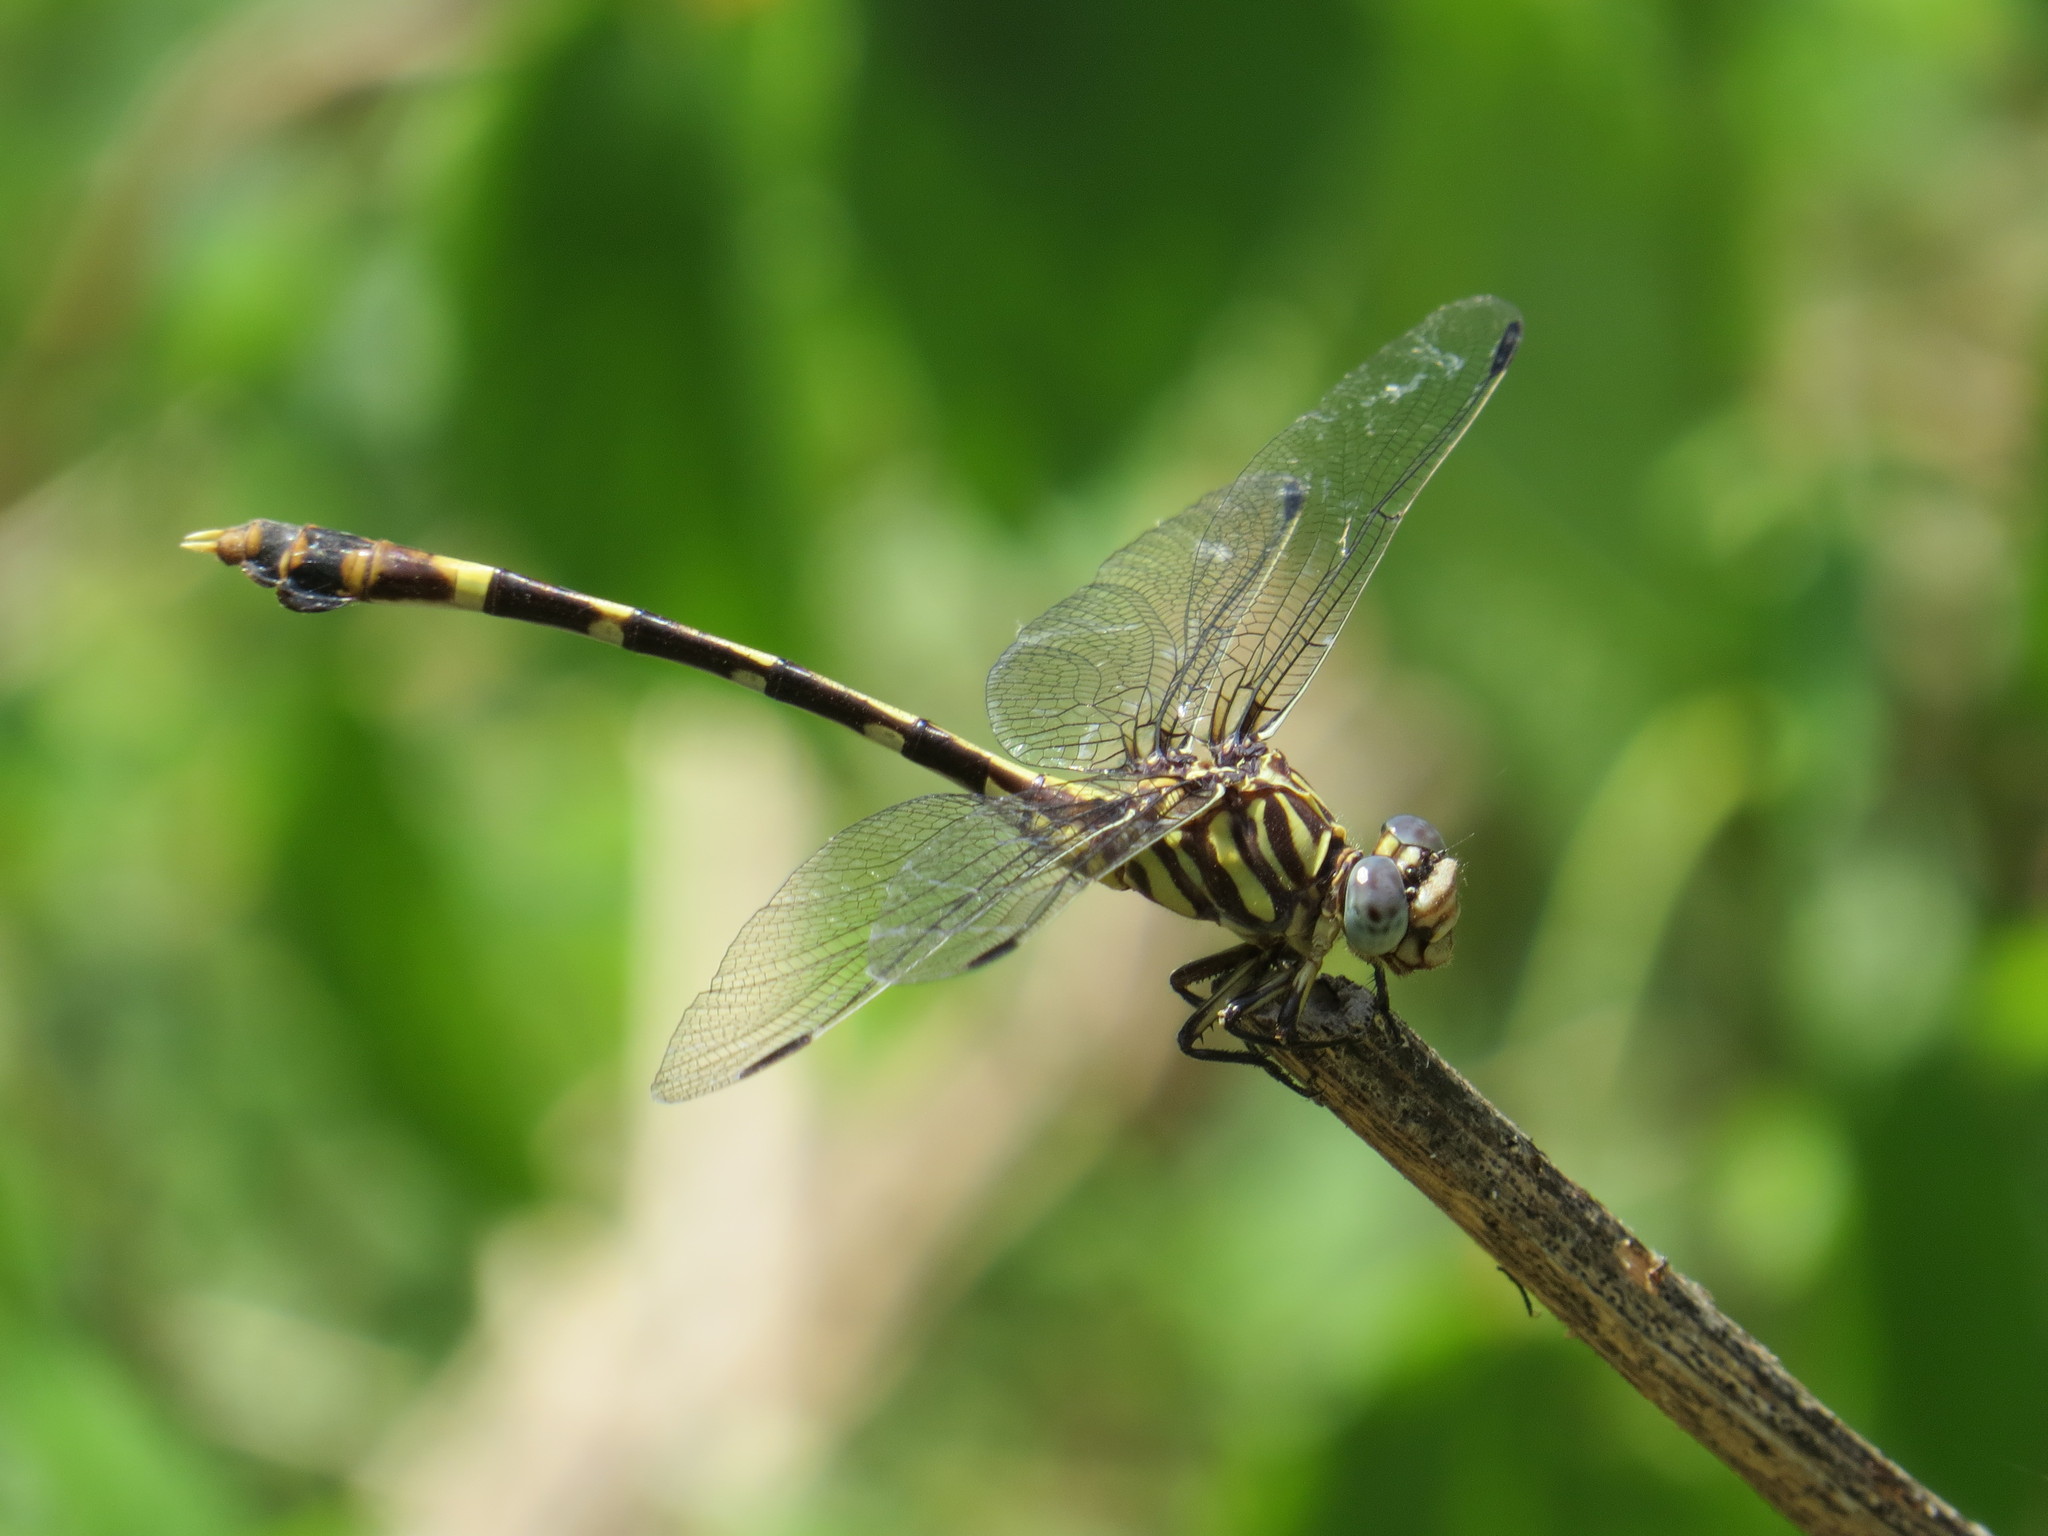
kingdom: Animalia
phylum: Arthropoda
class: Insecta
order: Odonata
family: Gomphidae
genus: Phyllogomphoides
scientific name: Phyllogomphoides albrighti
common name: Five-striped leaftail
